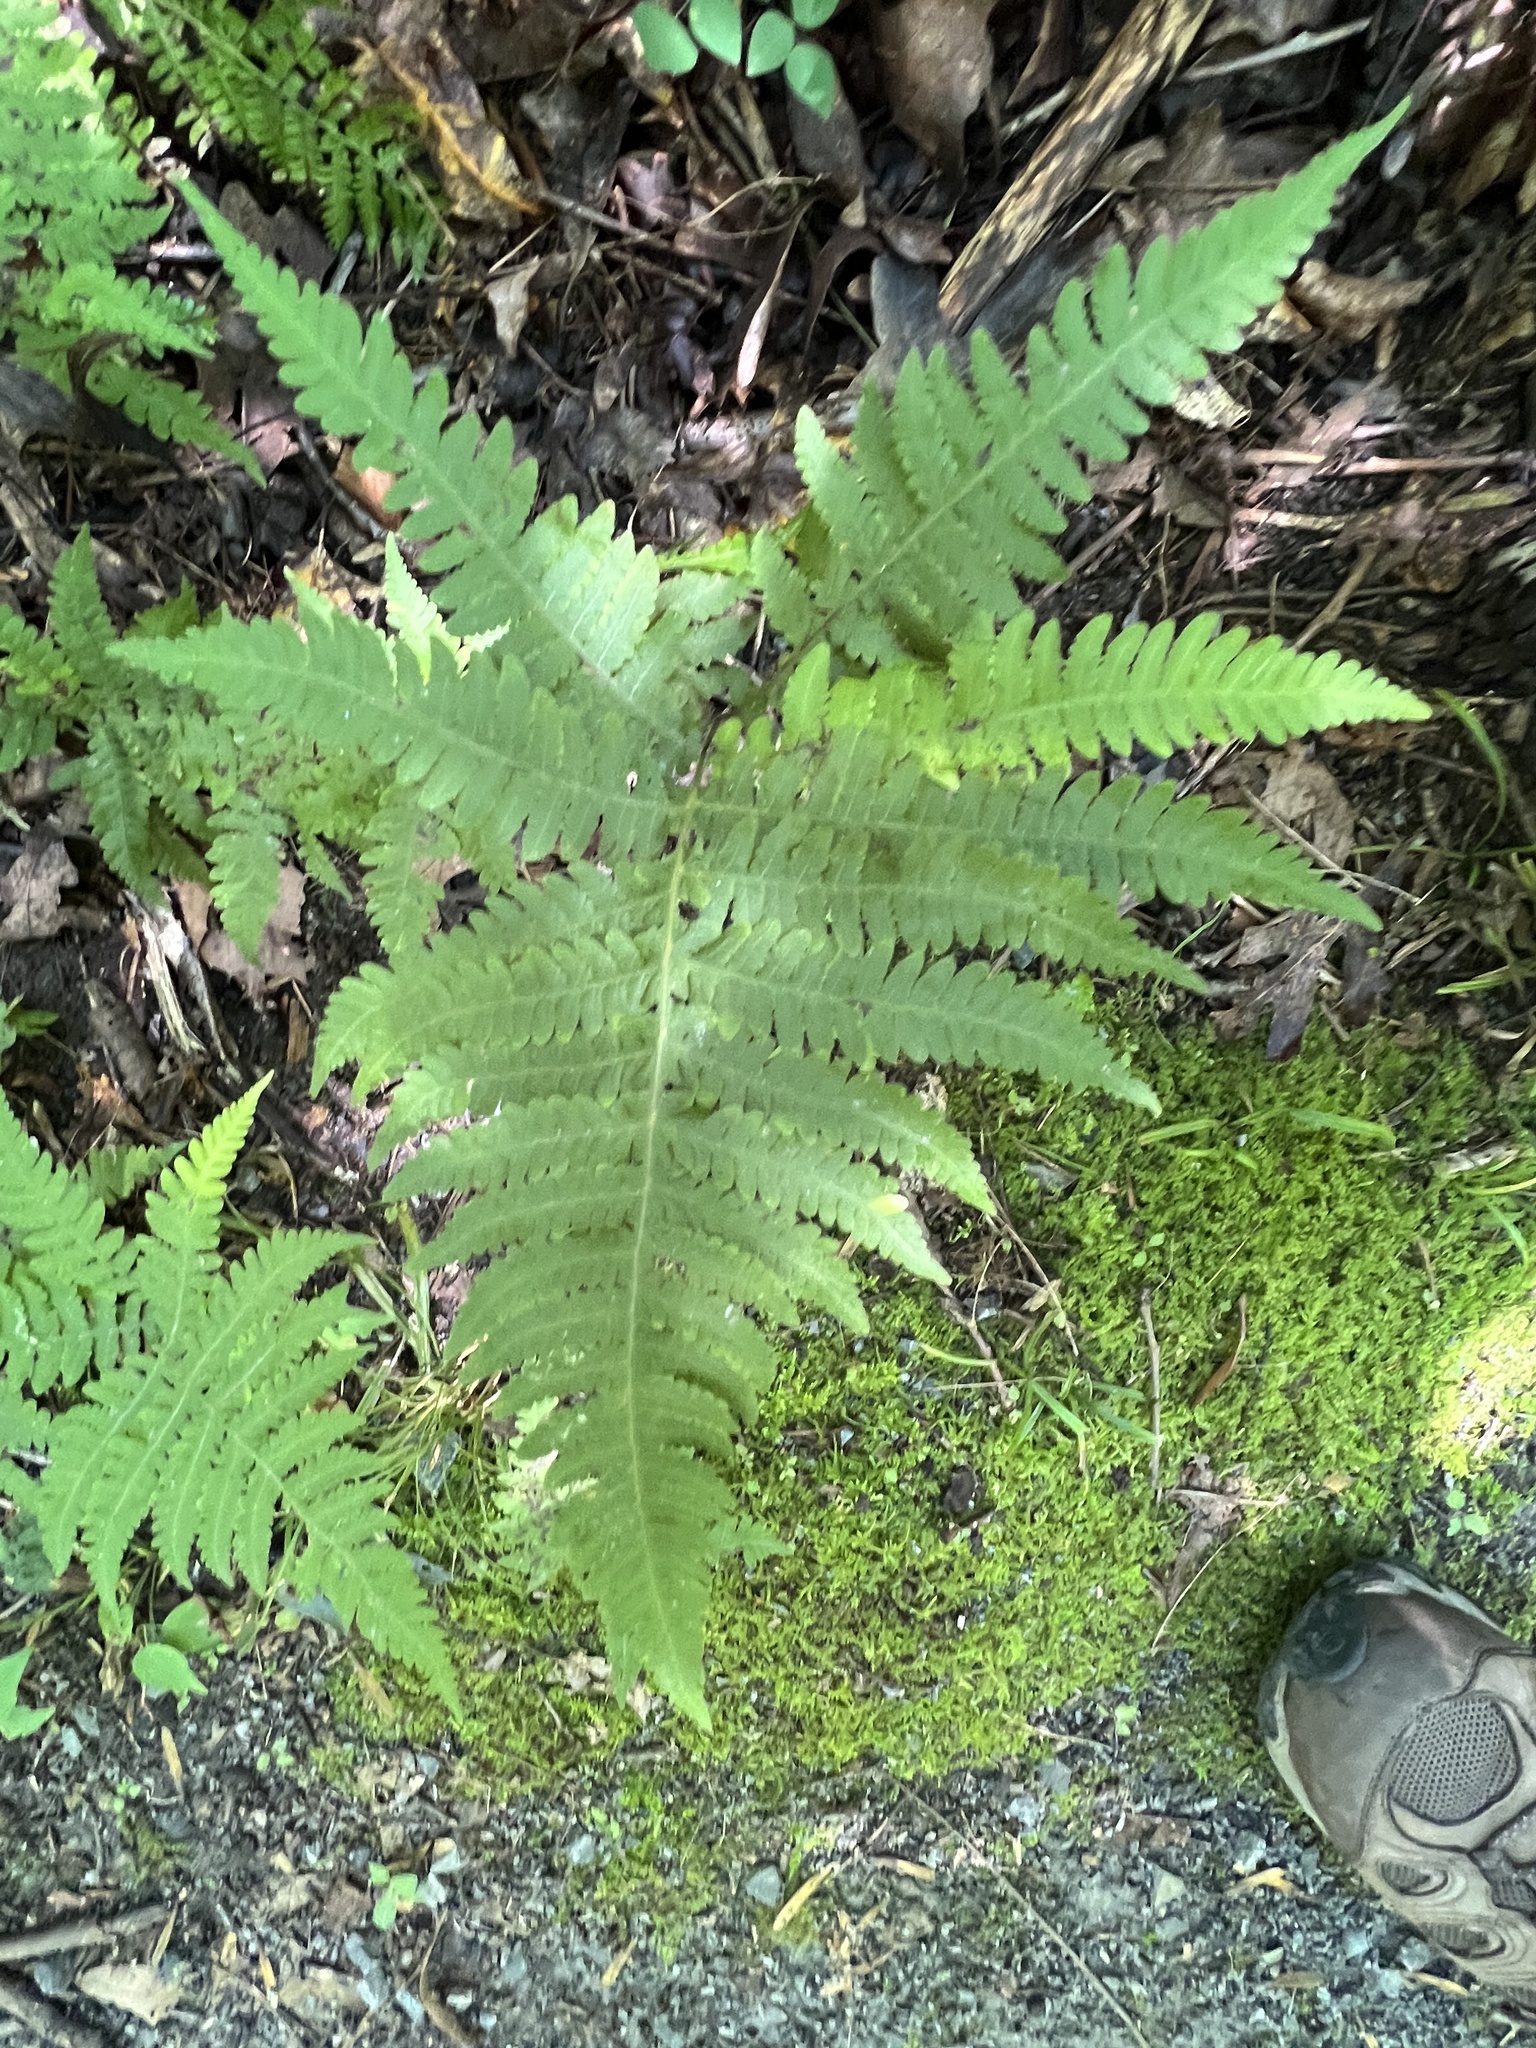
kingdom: Plantae
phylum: Tracheophyta
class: Polypodiopsida
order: Polypodiales
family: Thelypteridaceae
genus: Phegopteris
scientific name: Phegopteris hexagonoptera
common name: Broad beech fern
